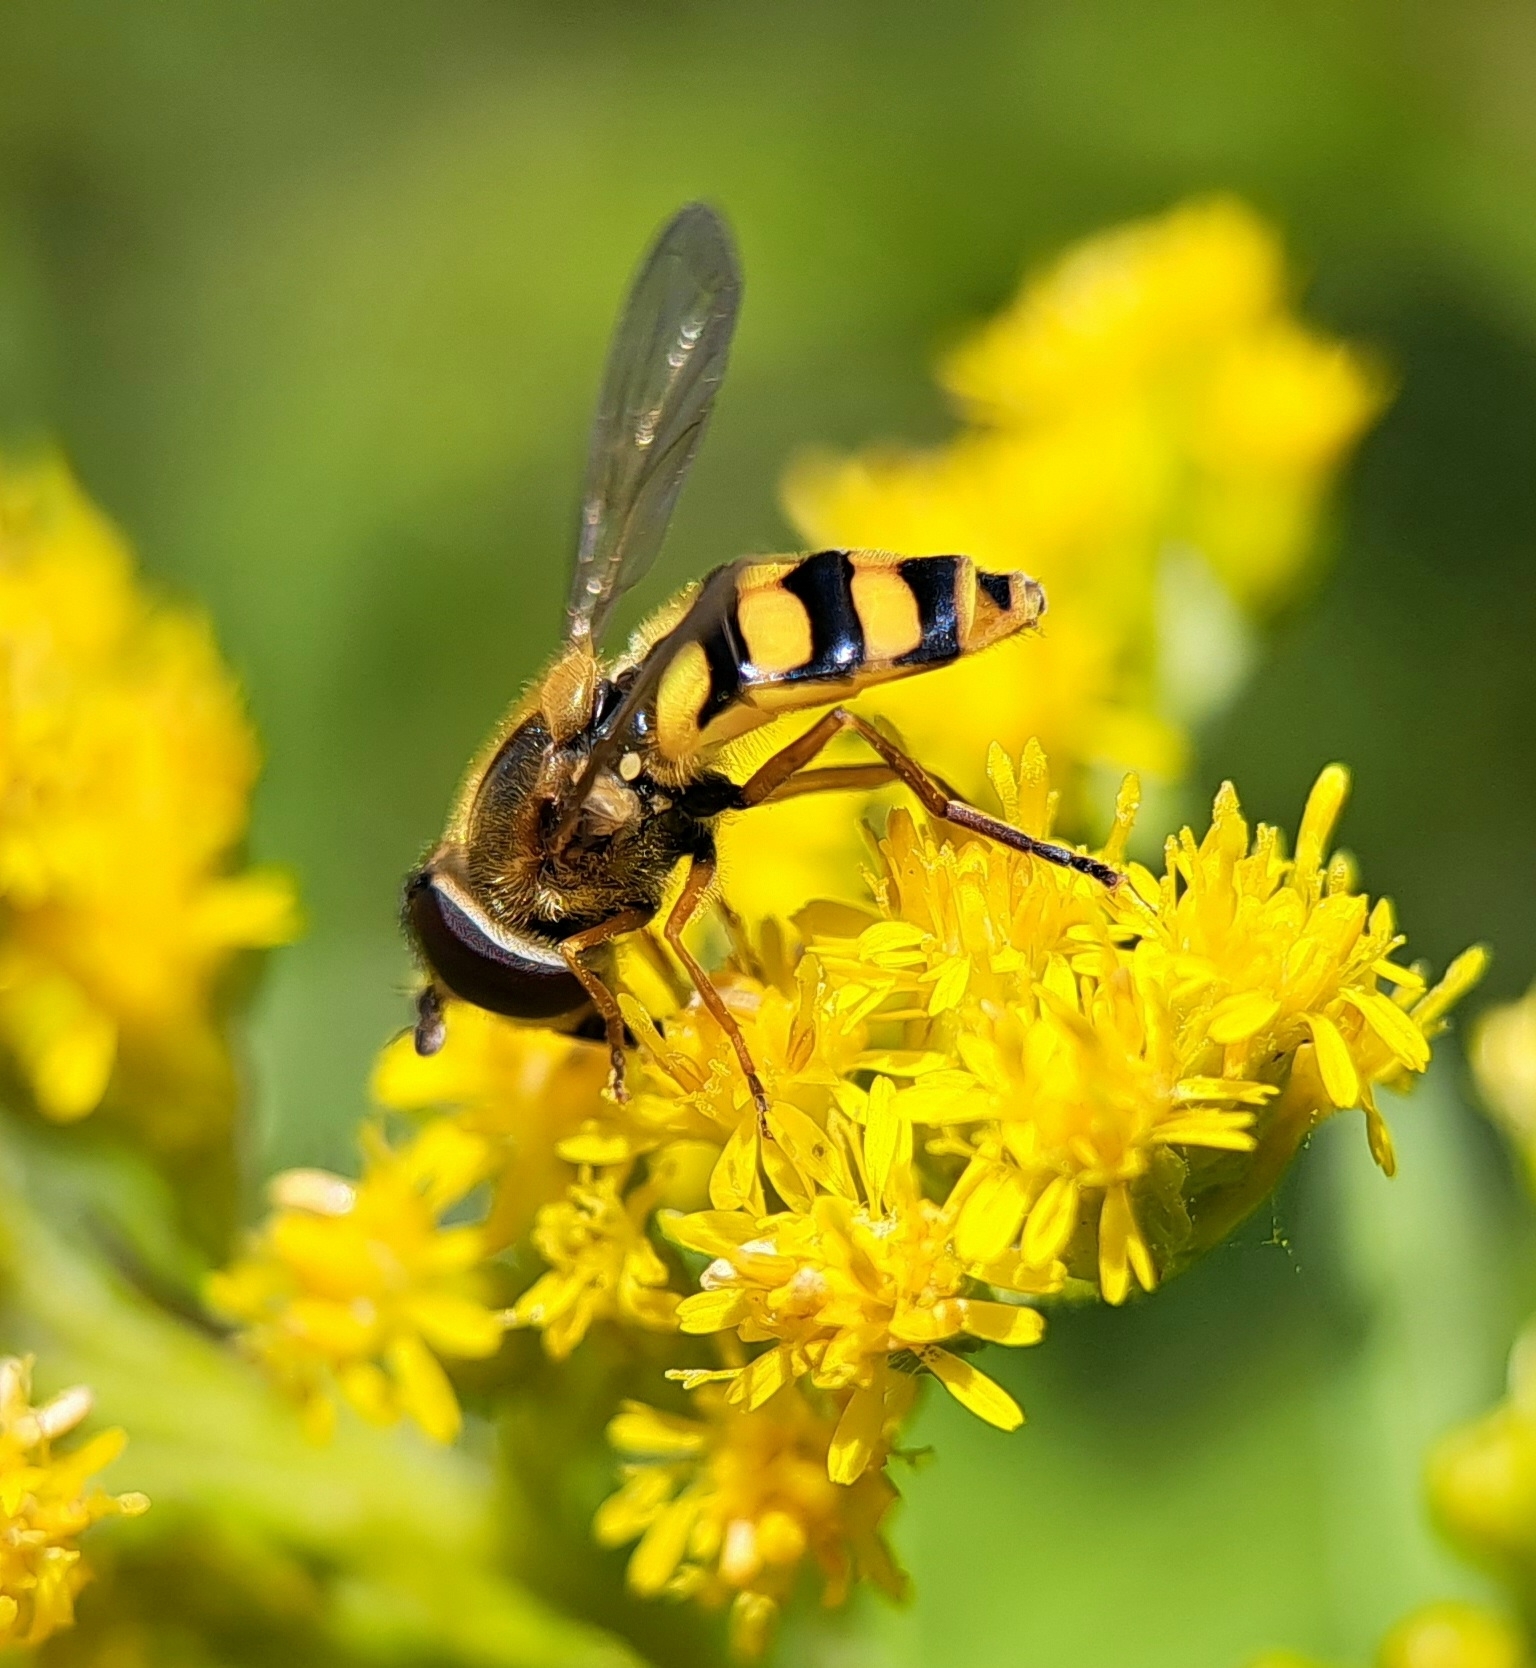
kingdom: Animalia
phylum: Arthropoda
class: Insecta
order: Diptera
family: Syrphidae
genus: Eupeodes
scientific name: Eupeodes latifasciatus
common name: Variable aphideater
